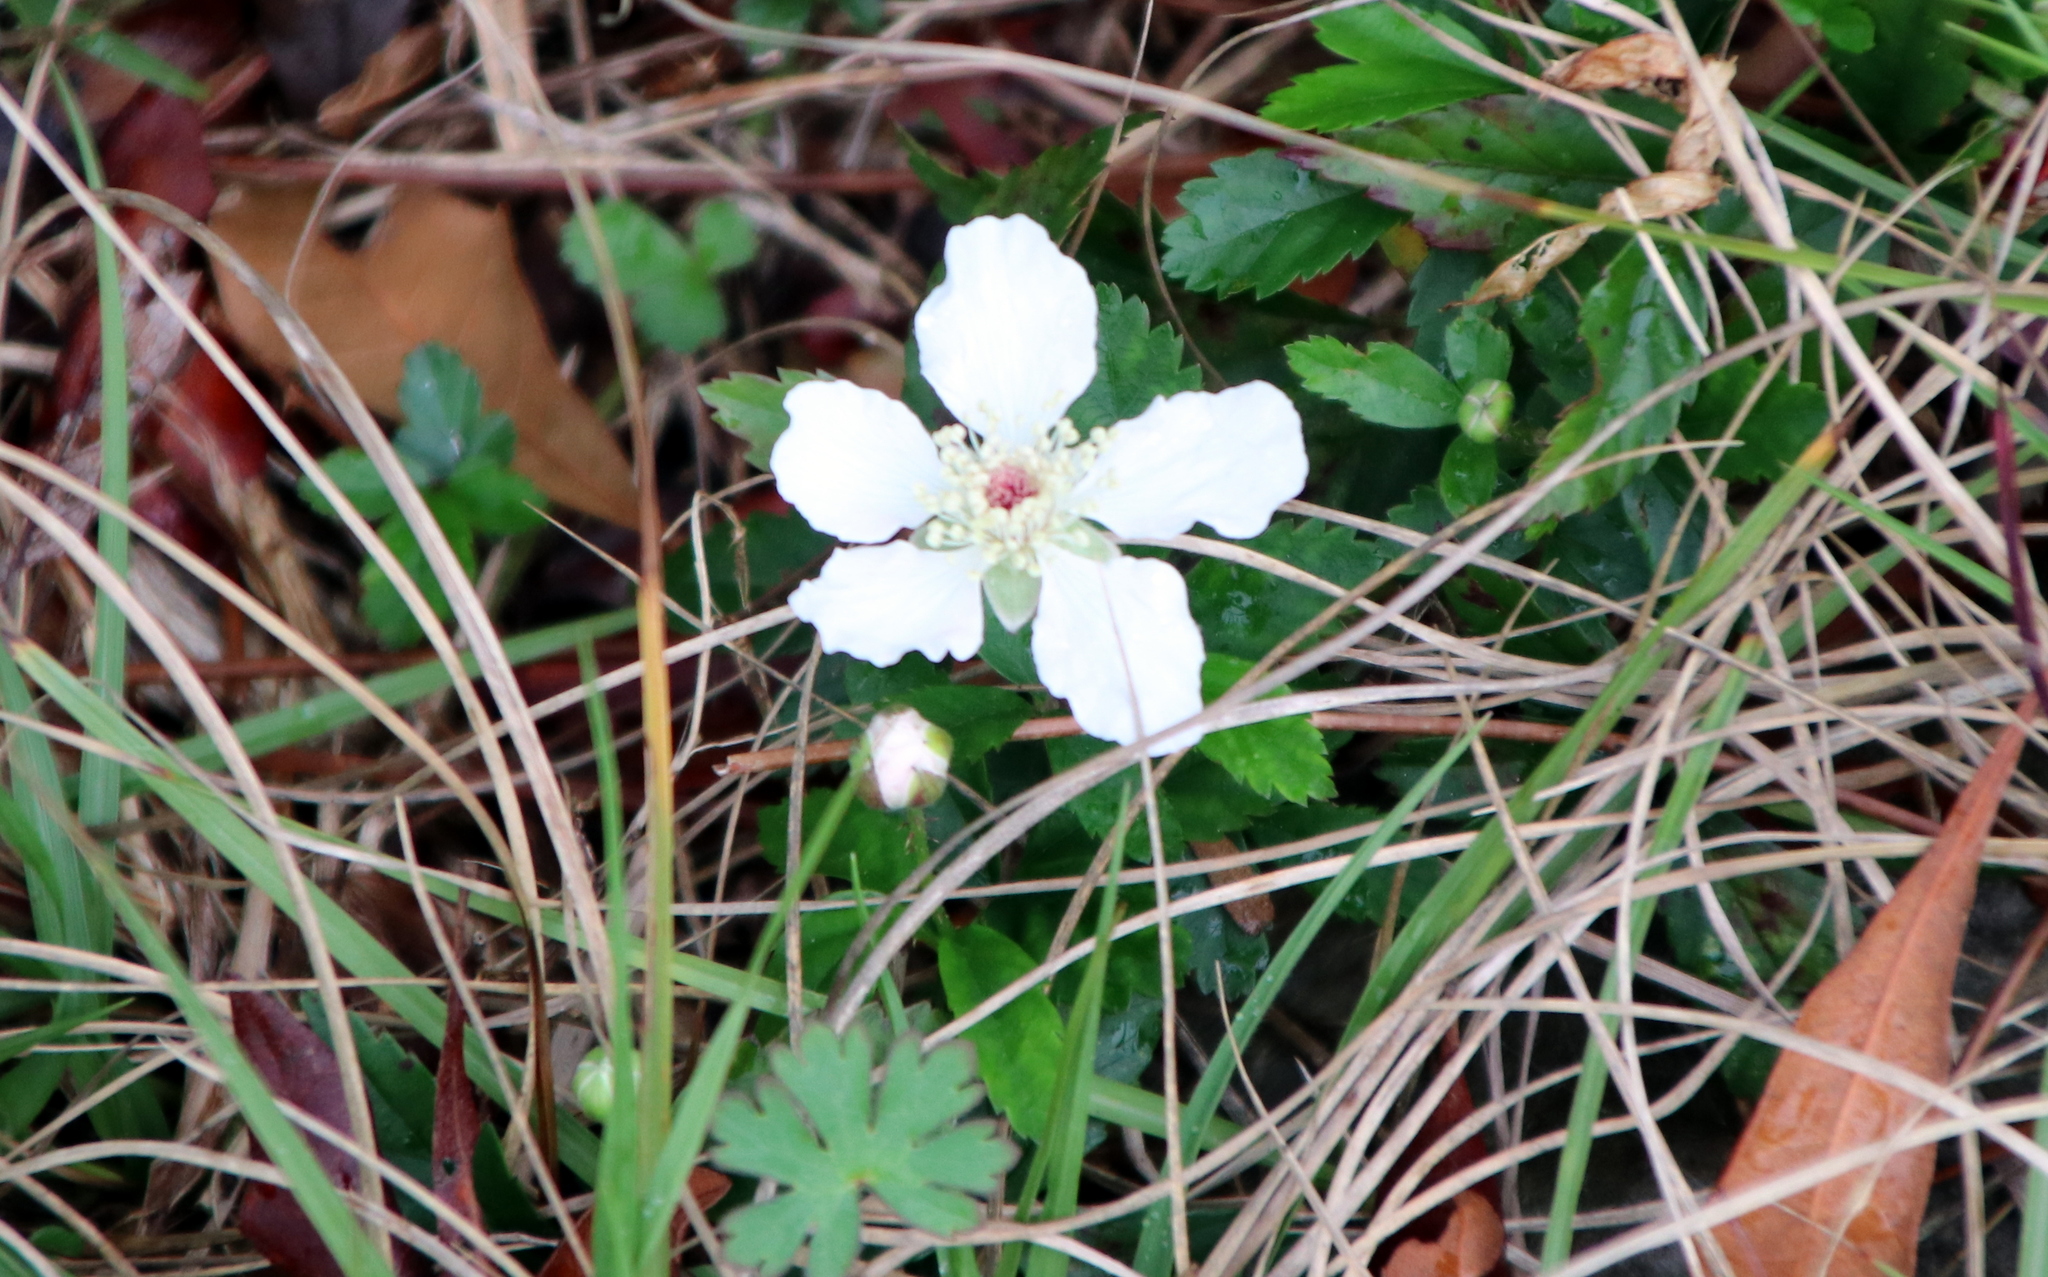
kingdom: Plantae
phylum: Tracheophyta
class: Magnoliopsida
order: Rosales
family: Rosaceae
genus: Rubus
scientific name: Rubus pensilvanicus
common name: Pennsylvania blackberry
